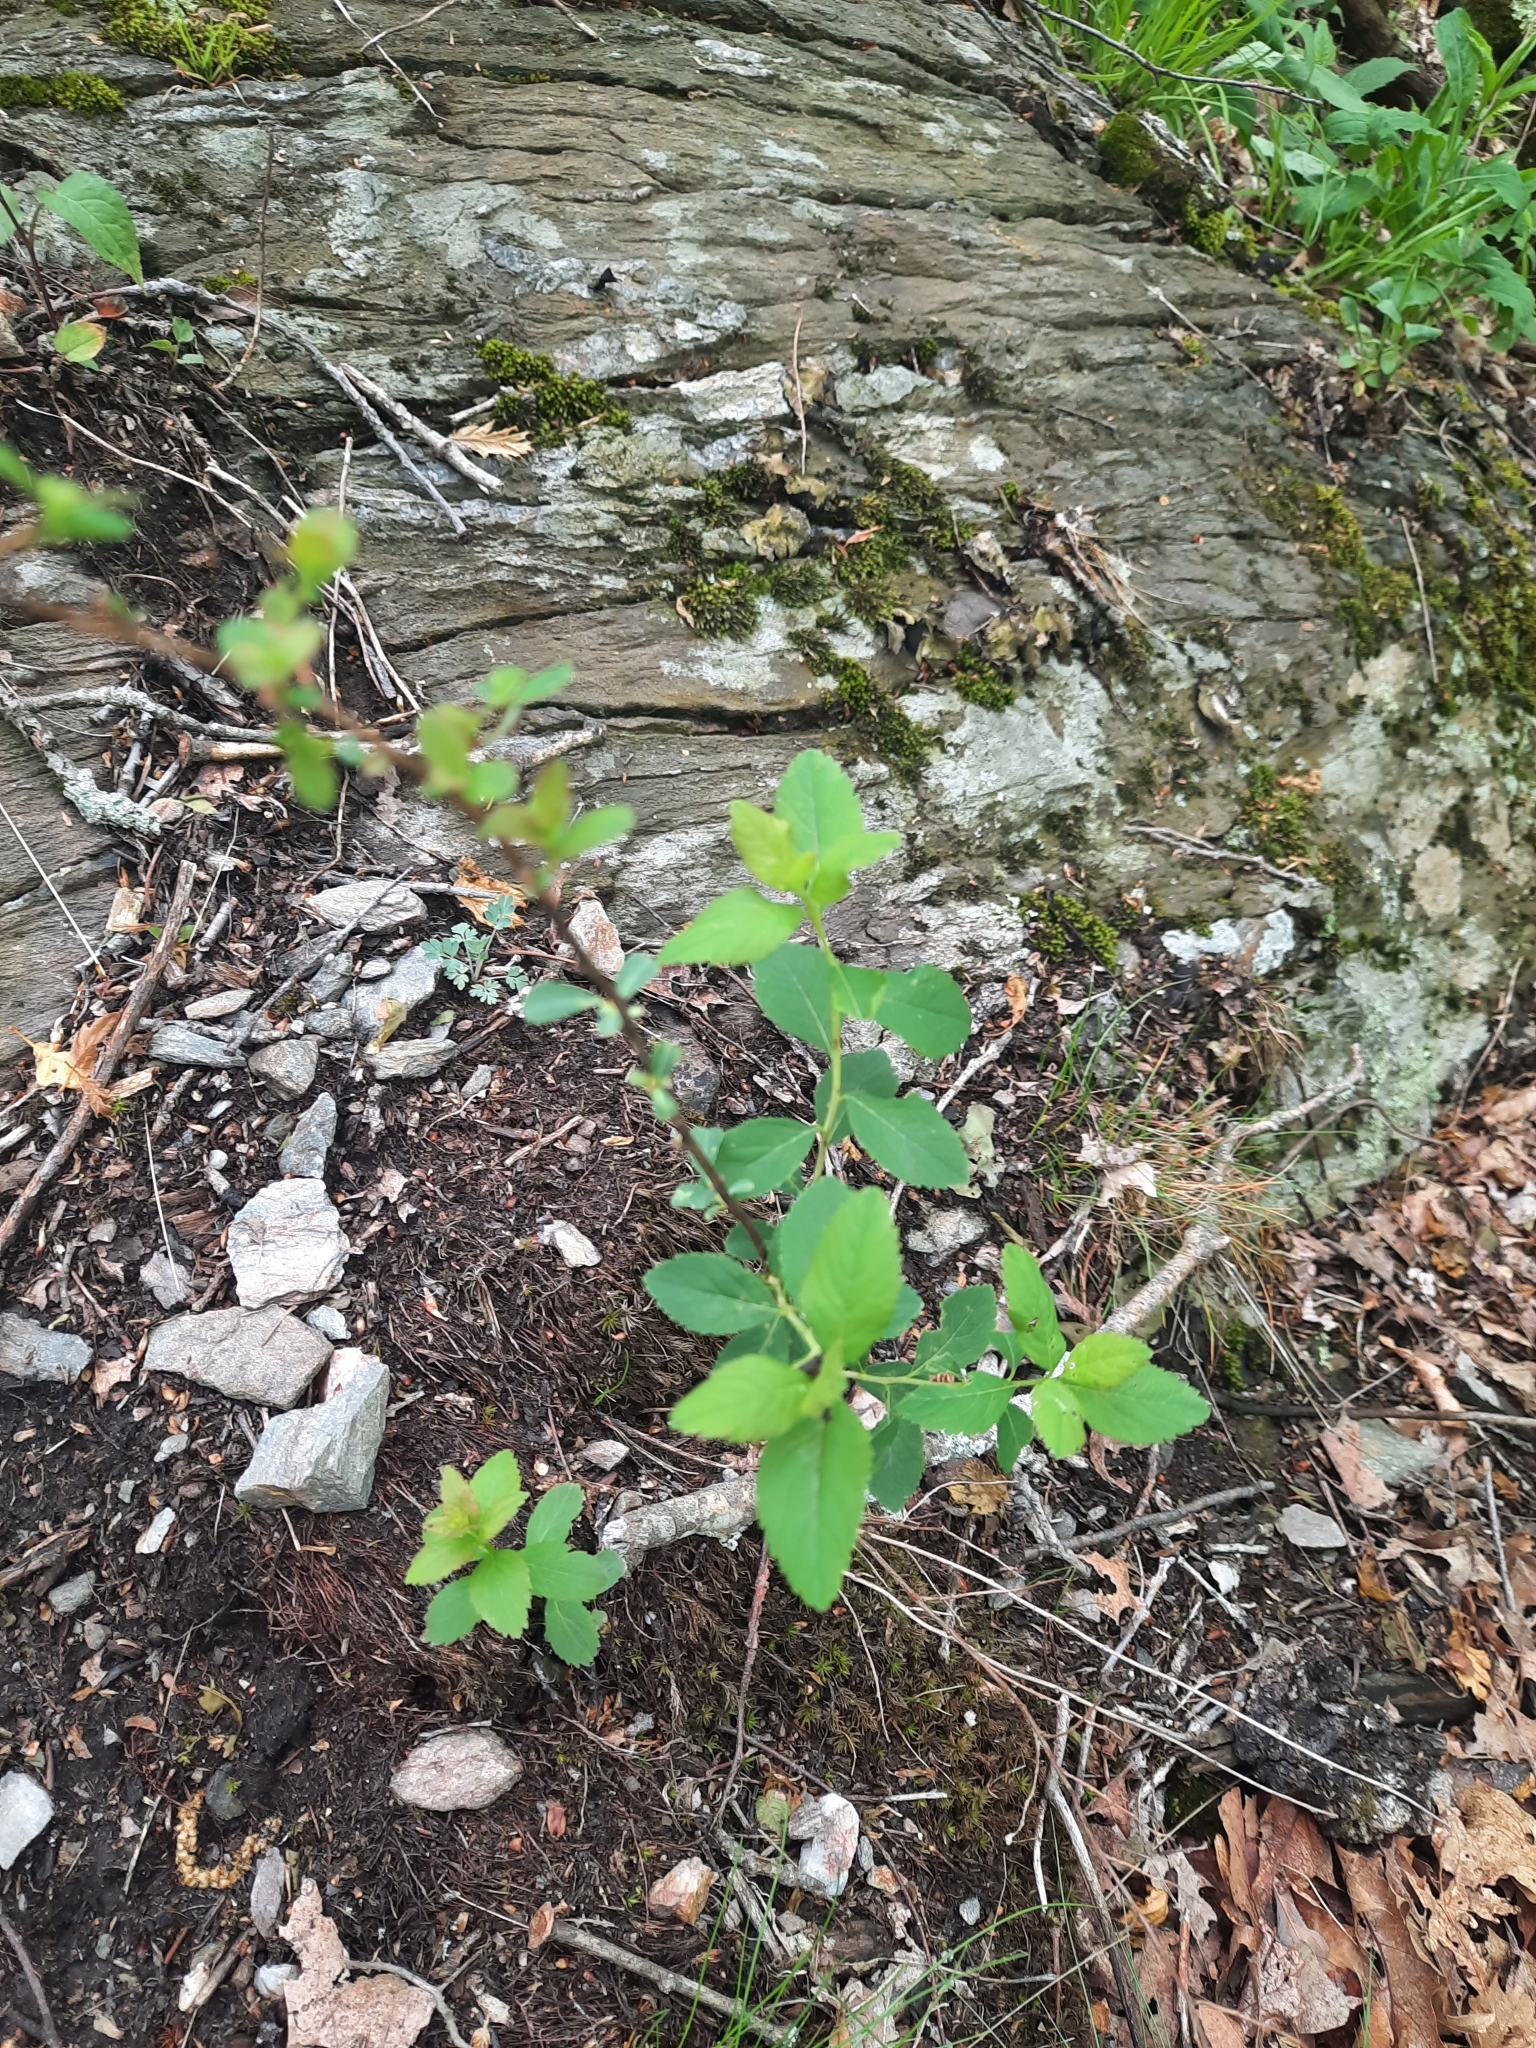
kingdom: Plantae
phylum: Tracheophyta
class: Magnoliopsida
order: Rosales
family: Rosaceae
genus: Spiraea
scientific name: Spiraea alba
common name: Pale bridewort
